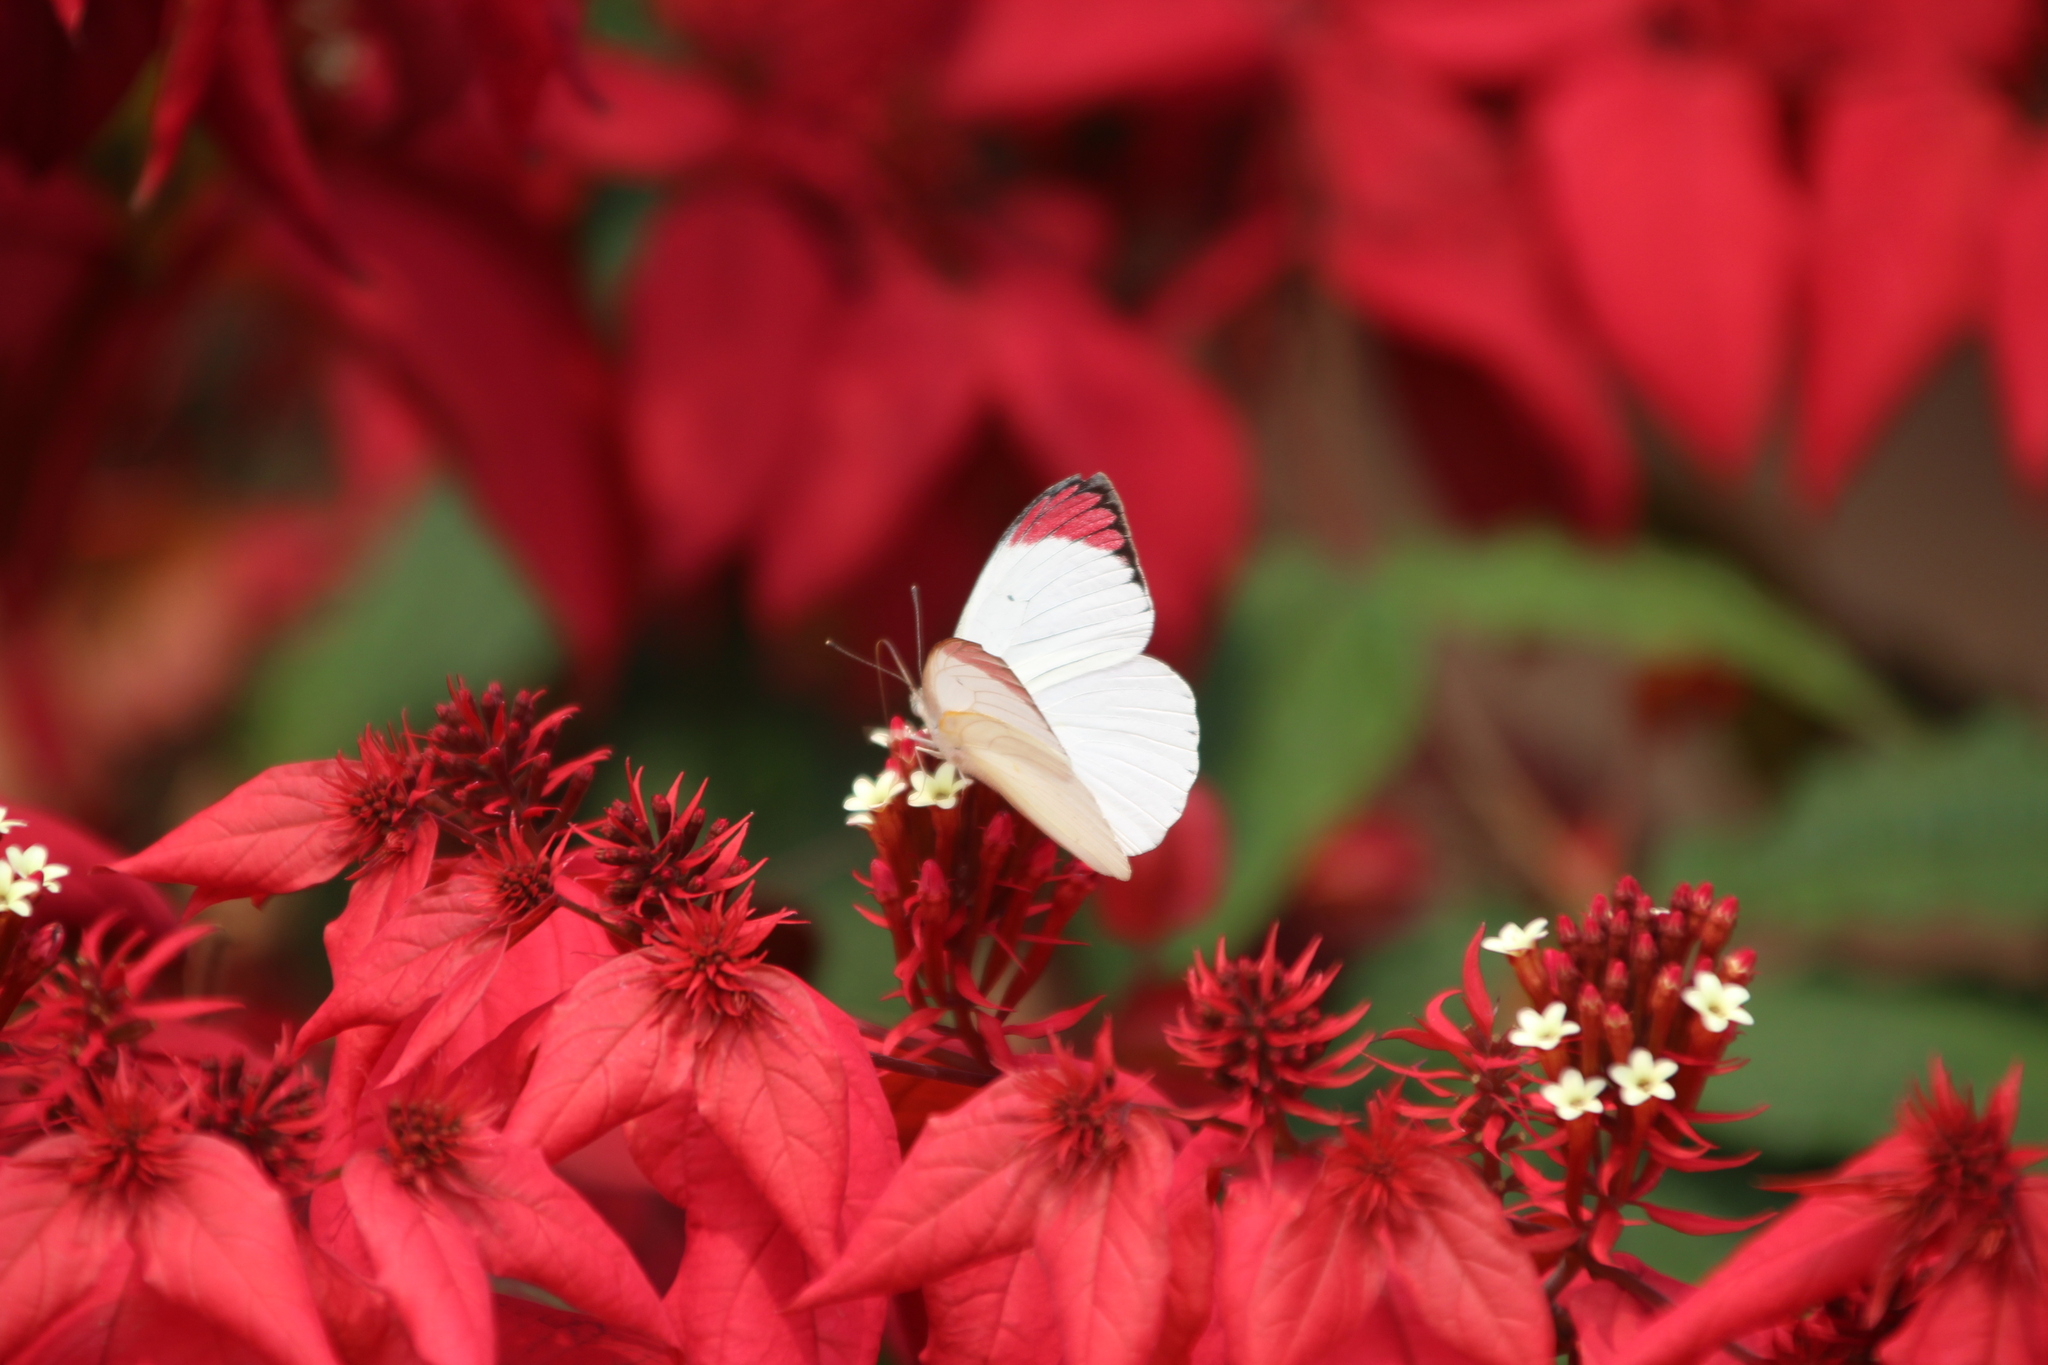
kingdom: Animalia
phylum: Arthropoda
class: Insecta
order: Lepidoptera
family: Pieridae
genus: Colotis
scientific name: Colotis hetaera
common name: Coast purple tip
